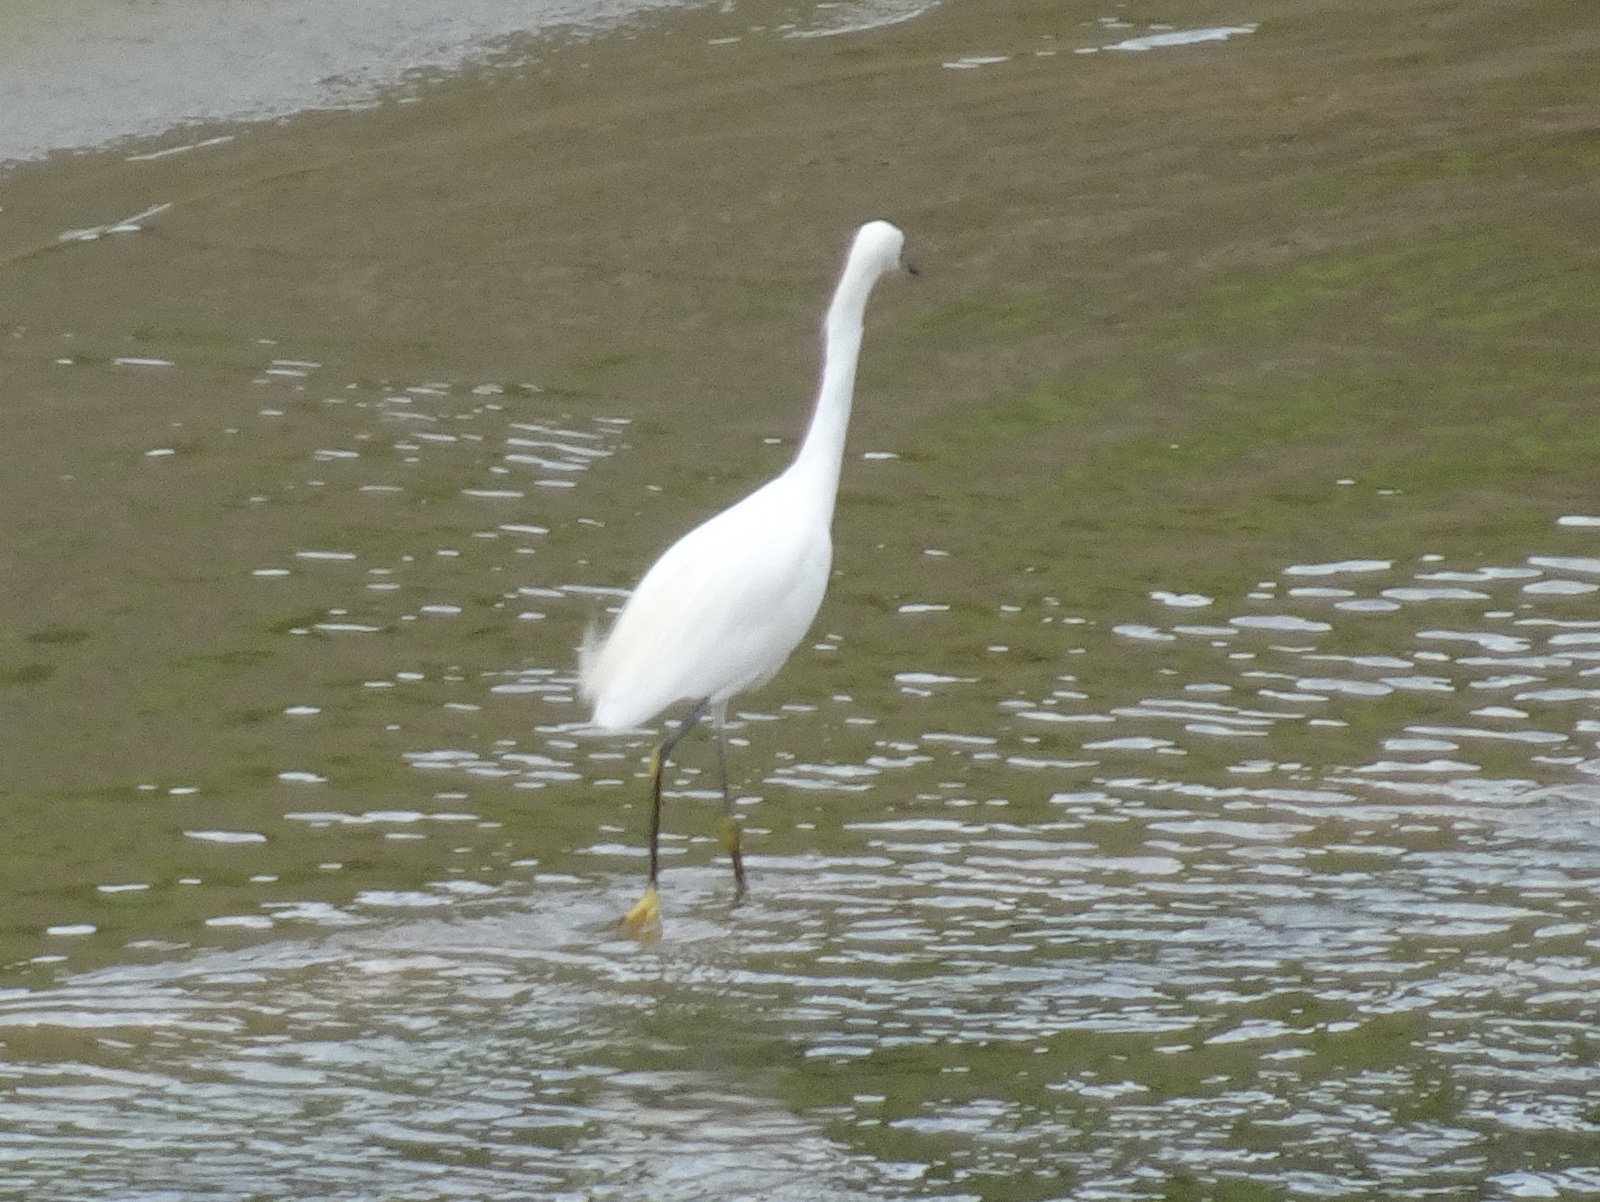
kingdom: Animalia
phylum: Chordata
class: Aves
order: Pelecaniformes
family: Ardeidae
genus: Egretta
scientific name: Egretta thula
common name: Snowy egret
